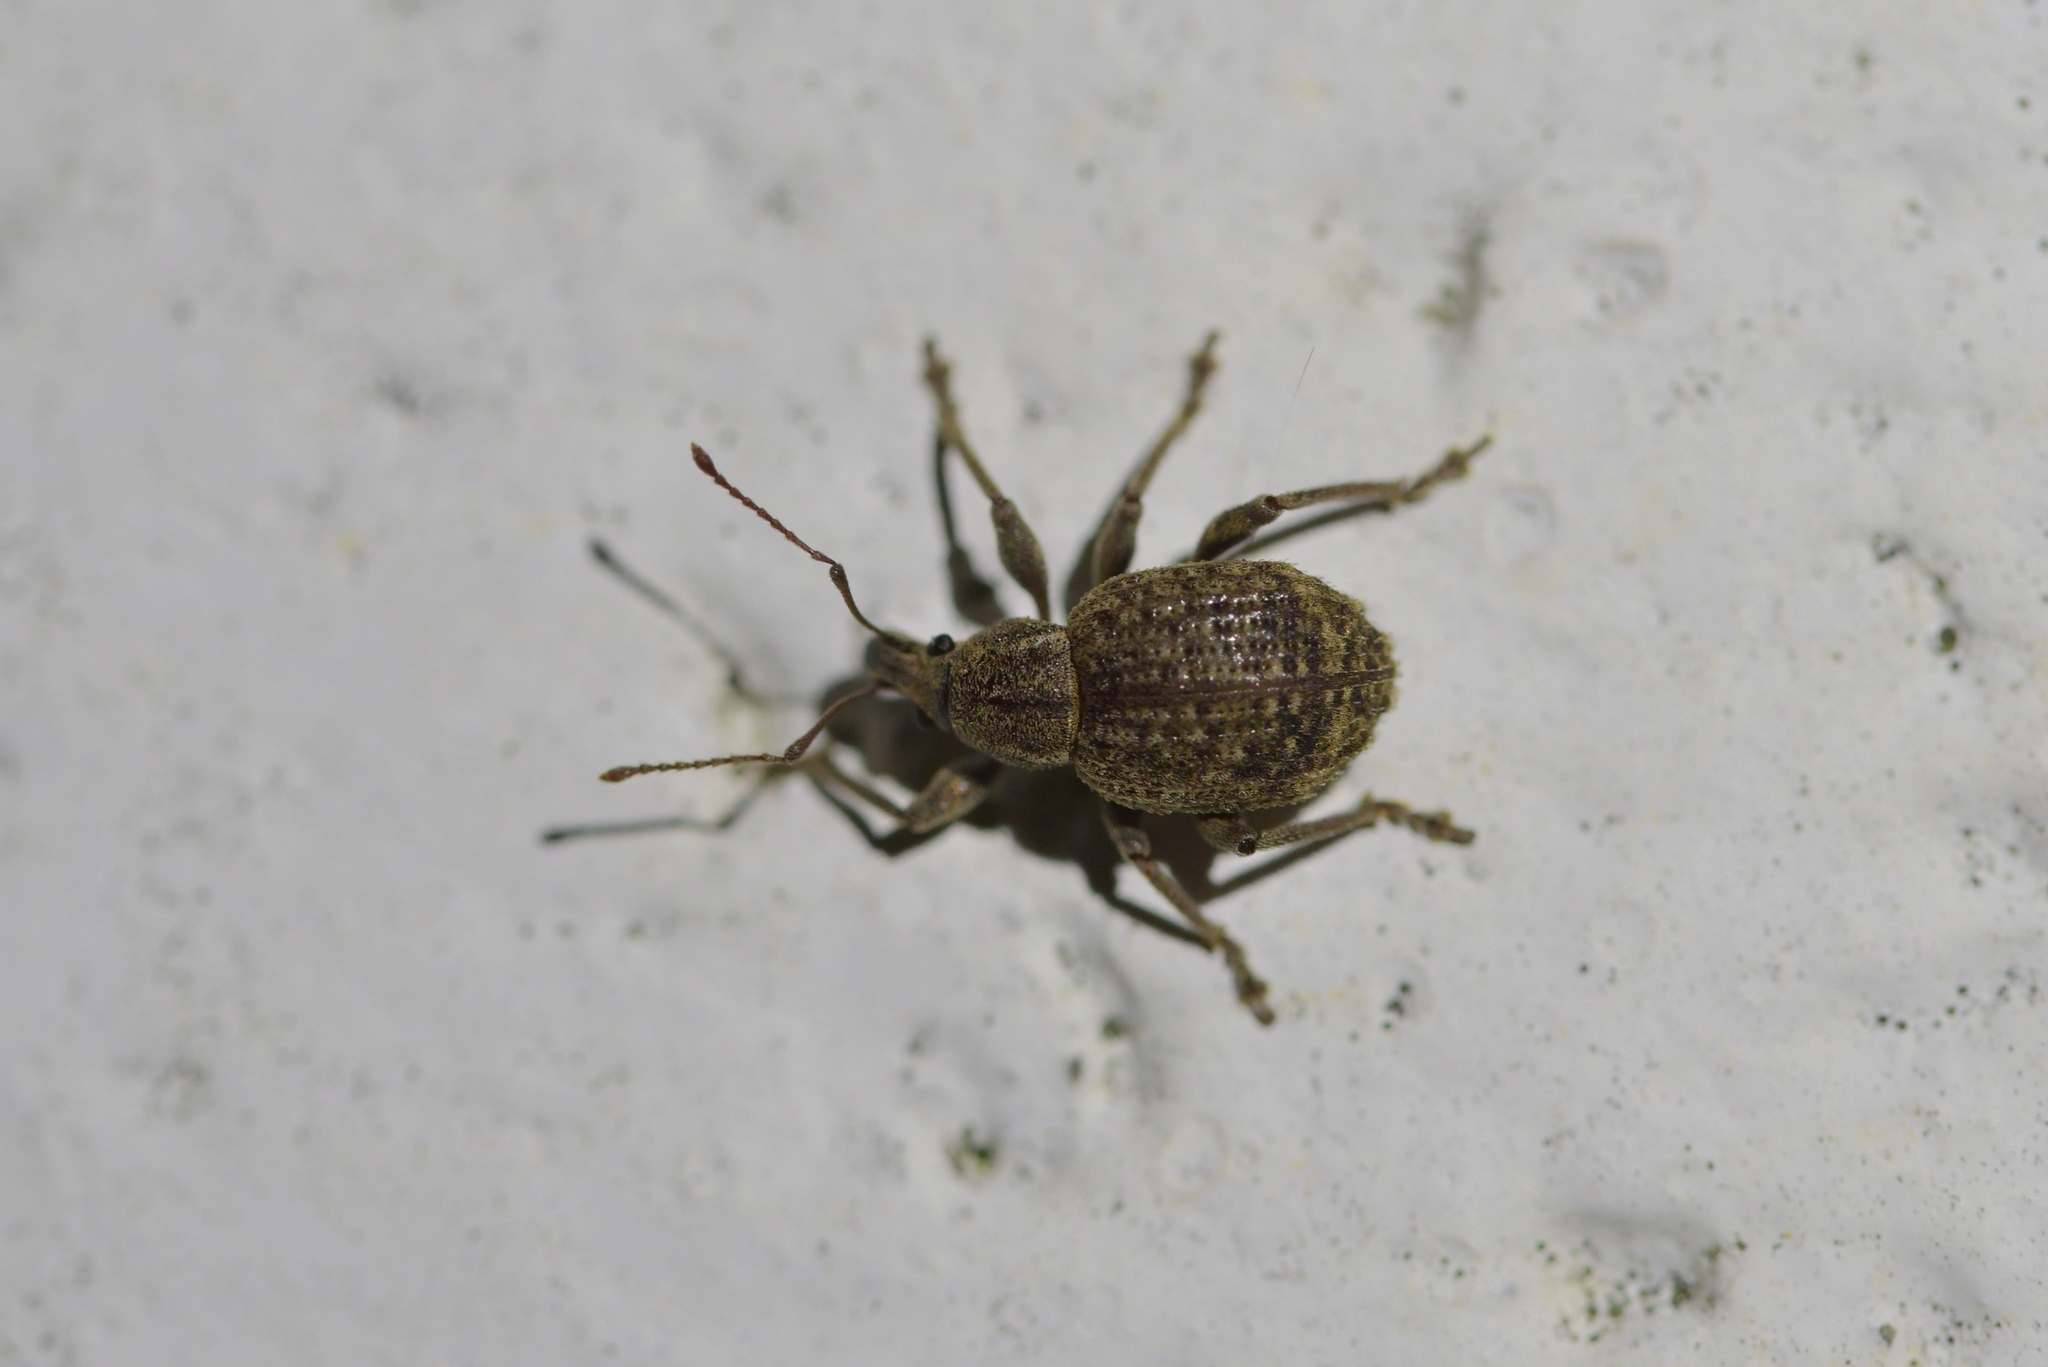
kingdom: Animalia
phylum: Arthropoda
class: Insecta
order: Coleoptera
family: Curculionidae
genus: Phlyctinus
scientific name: Phlyctinus callosus
